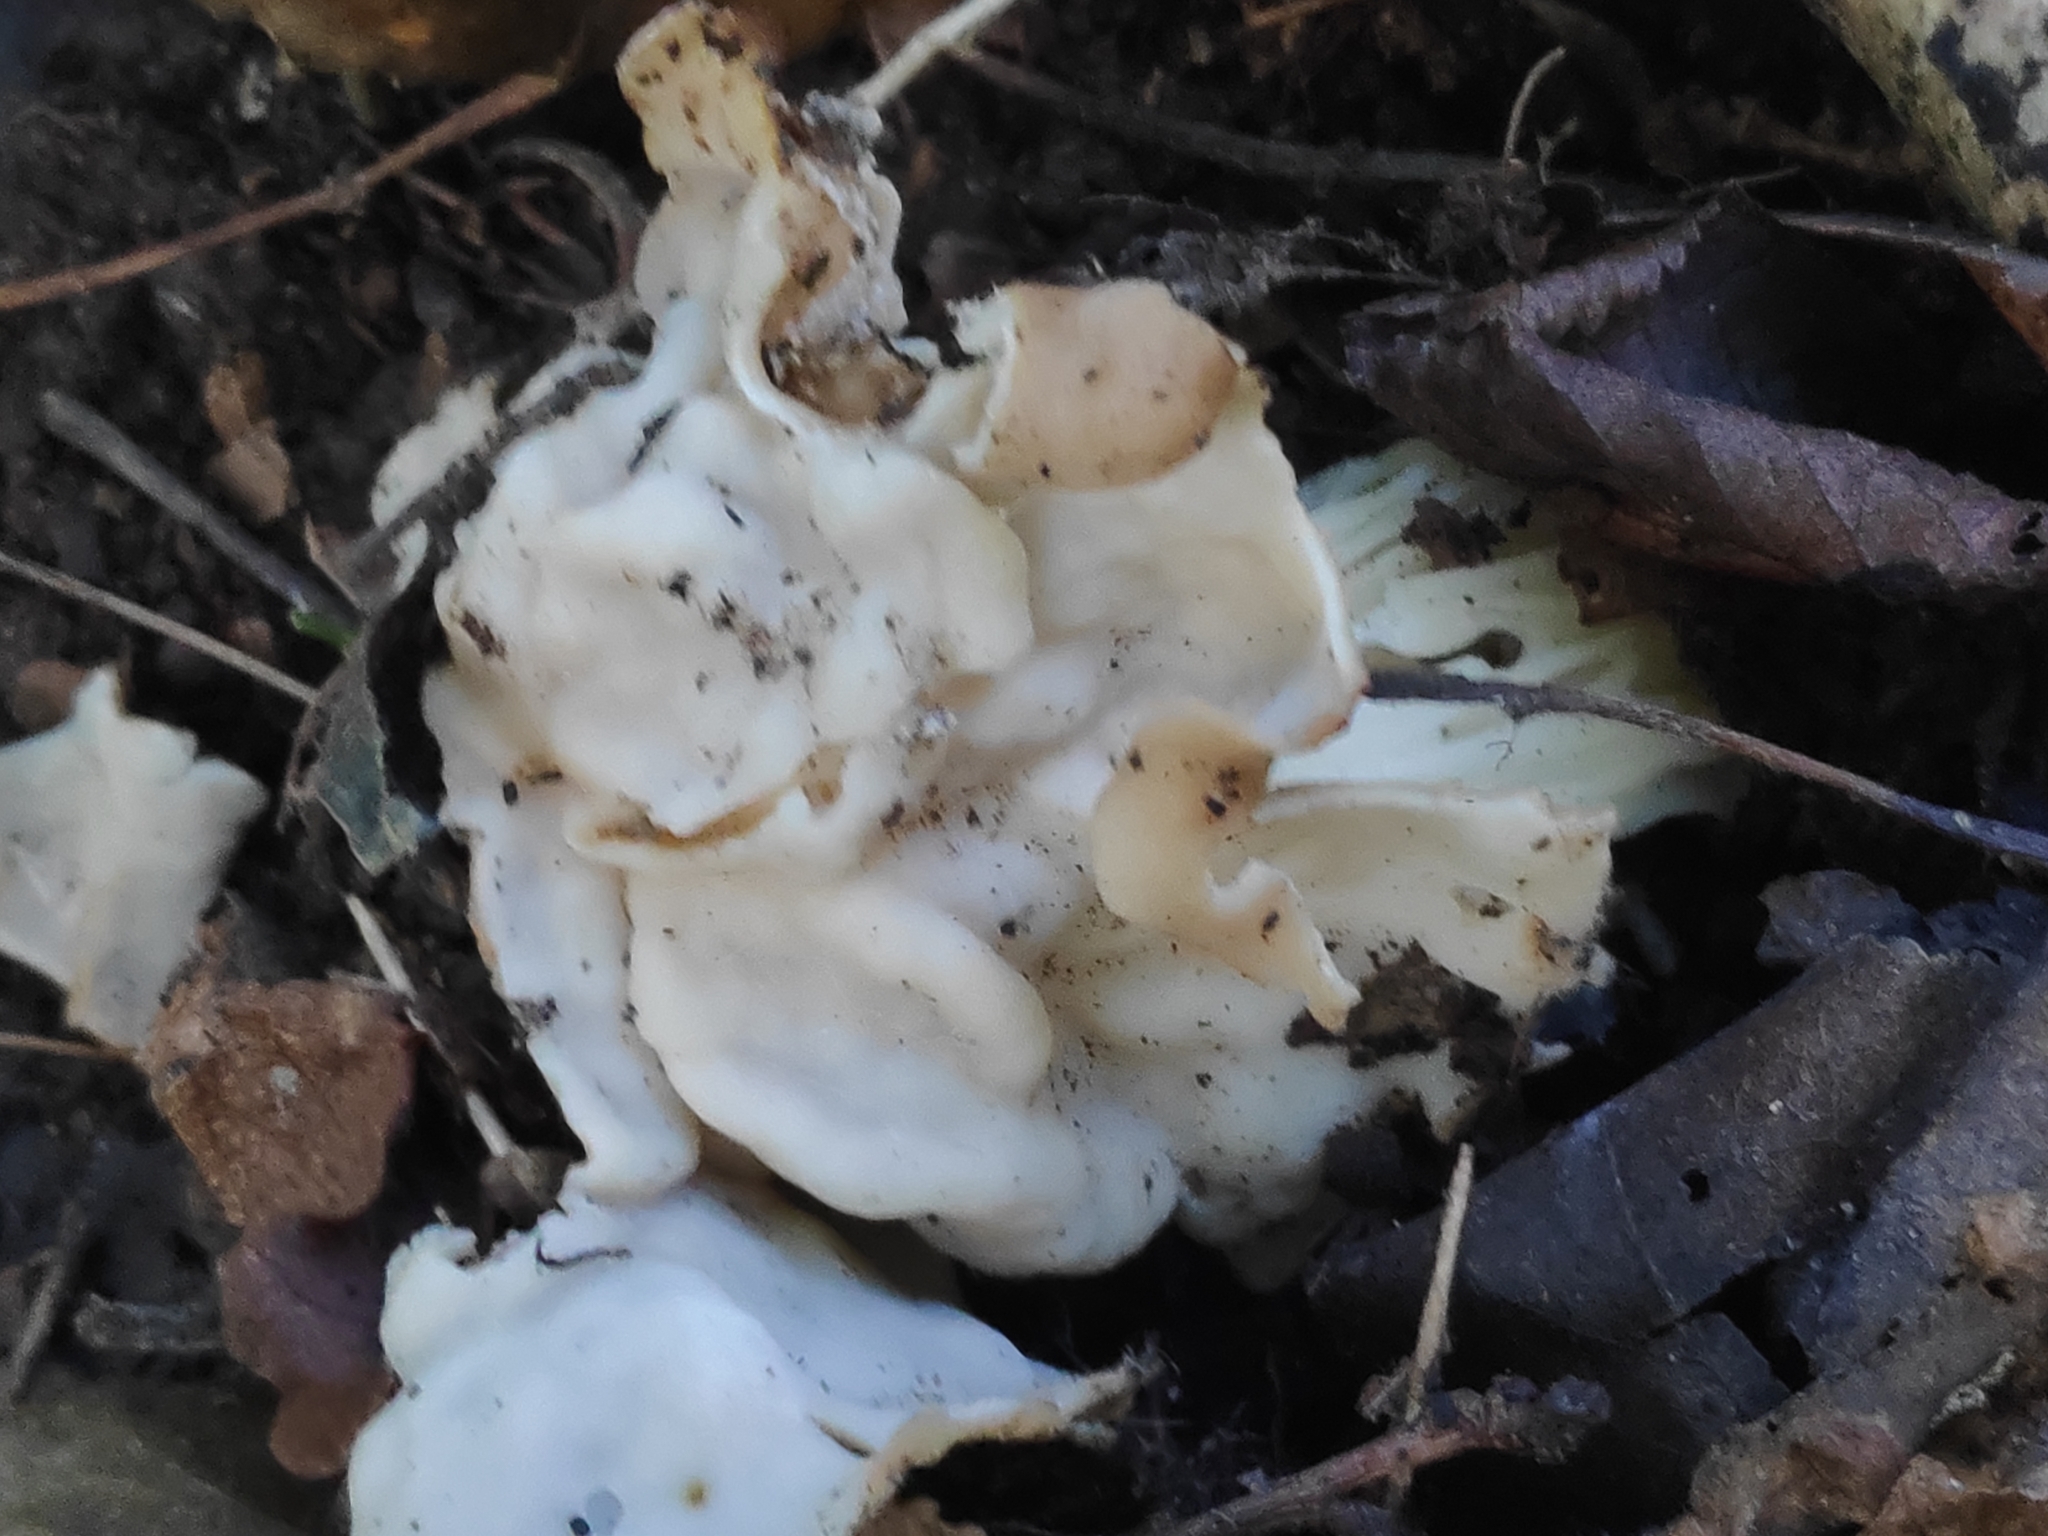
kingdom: Fungi
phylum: Ascomycota
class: Pezizomycetes
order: Pezizales
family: Helvellaceae
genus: Helvella
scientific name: Helvella crispa
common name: White saddle
